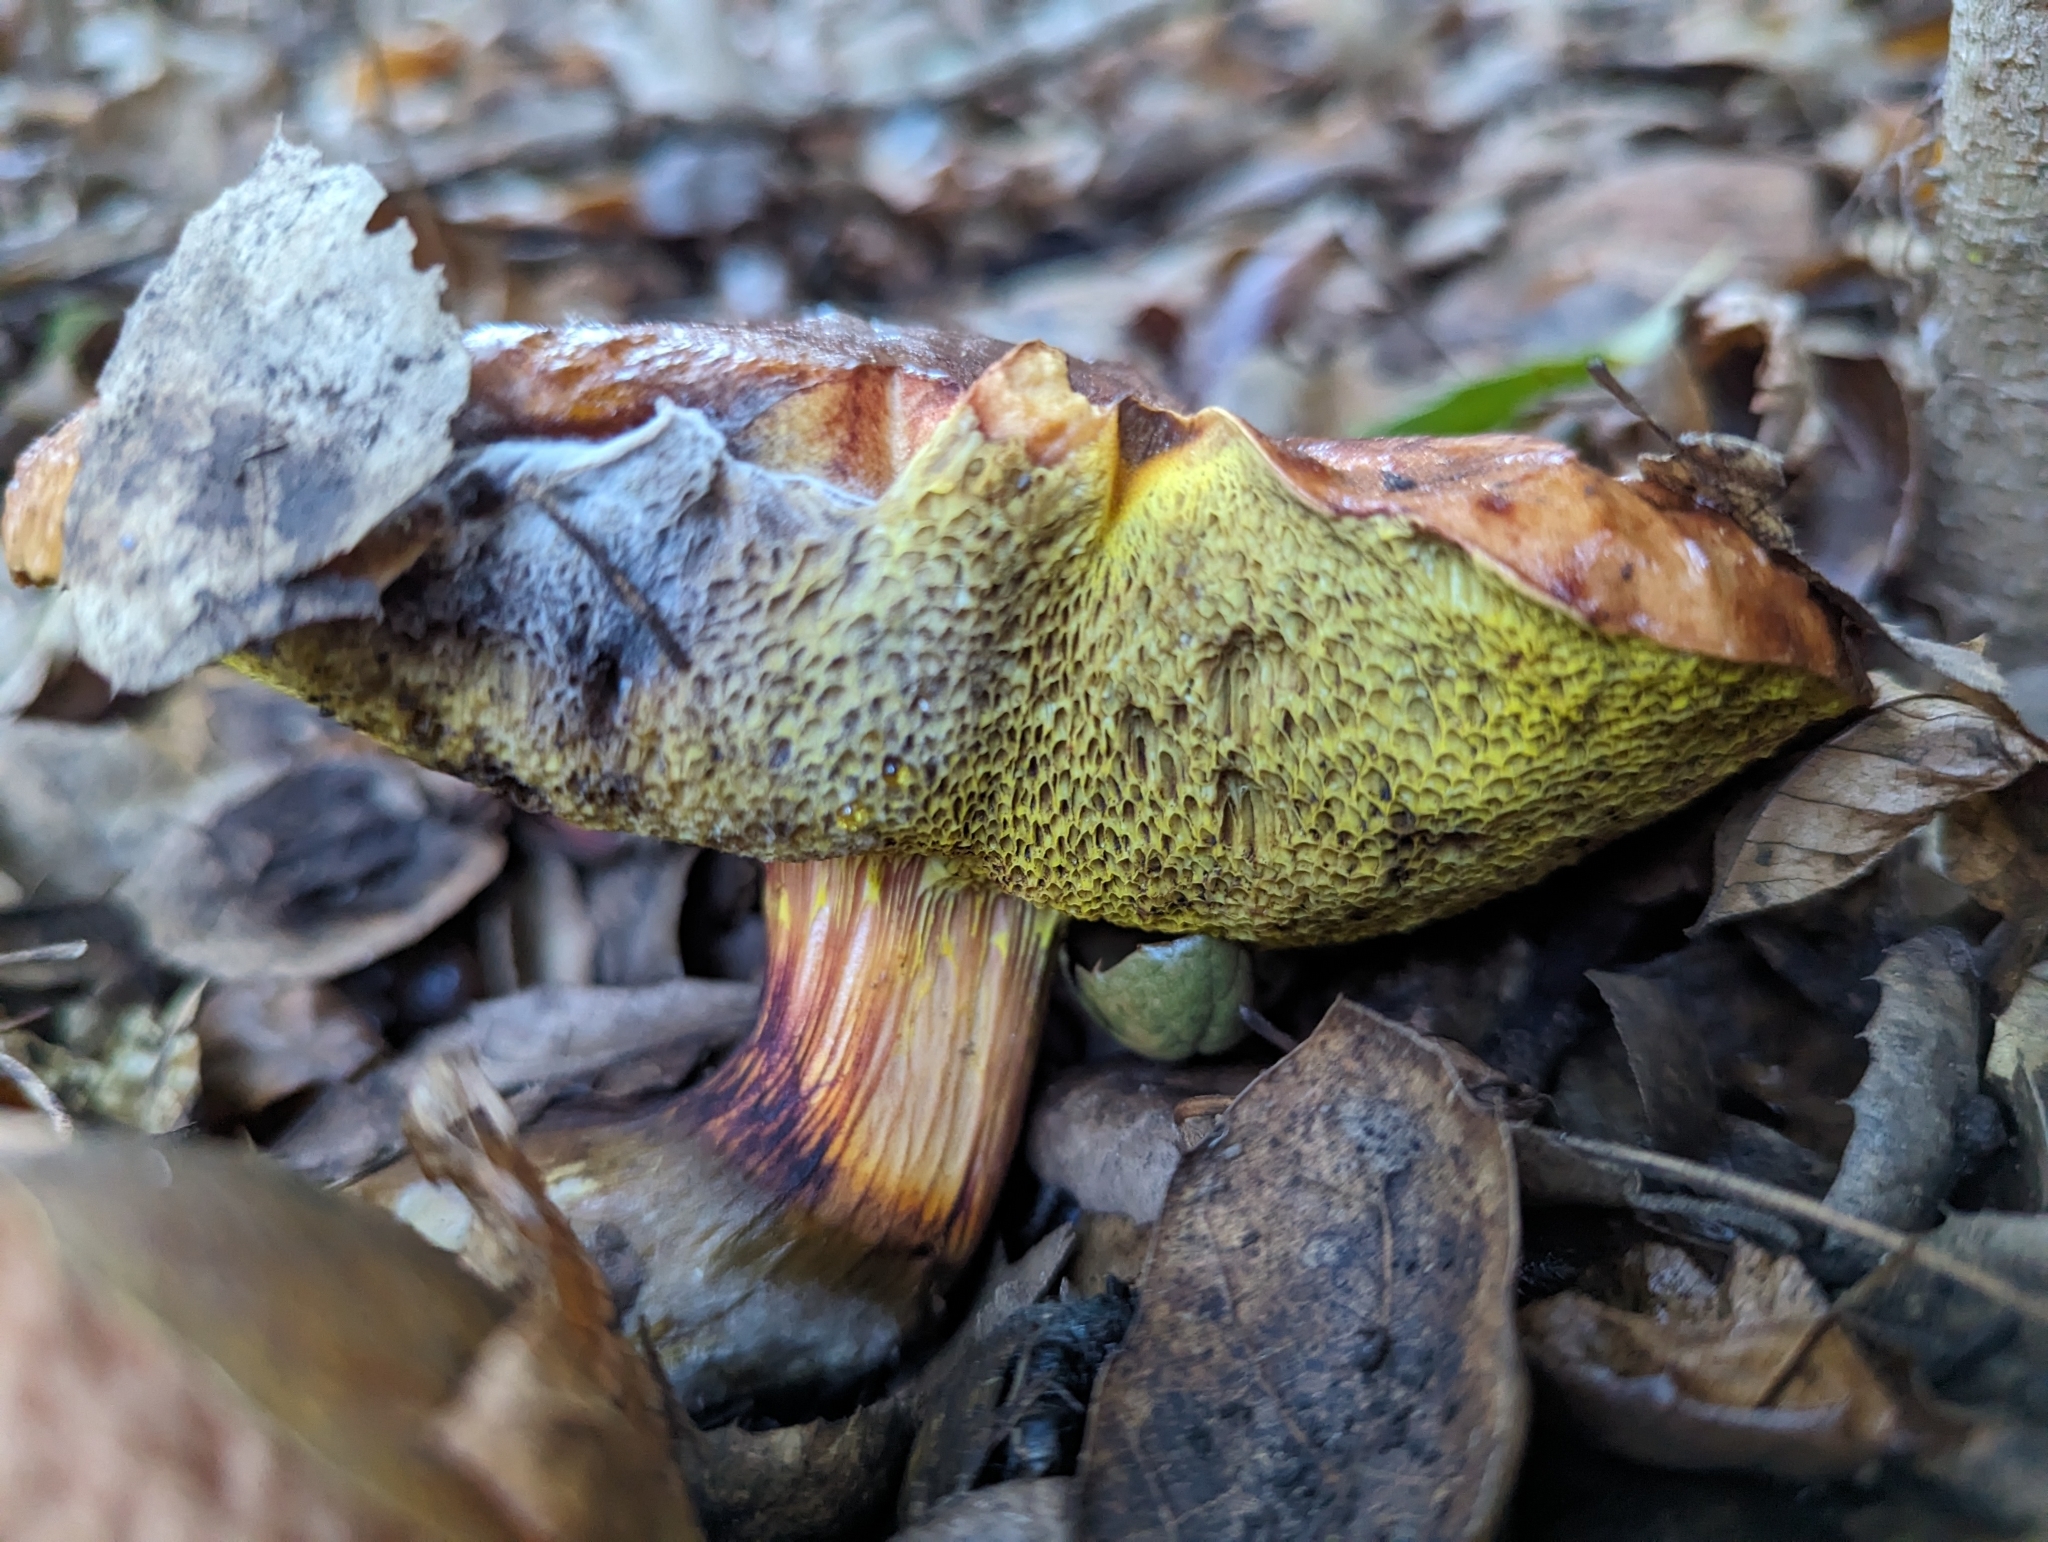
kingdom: Fungi
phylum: Basidiomycota
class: Agaricomycetes
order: Boletales
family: Boletaceae
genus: Aureoboletus
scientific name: Aureoboletus flaviporus
